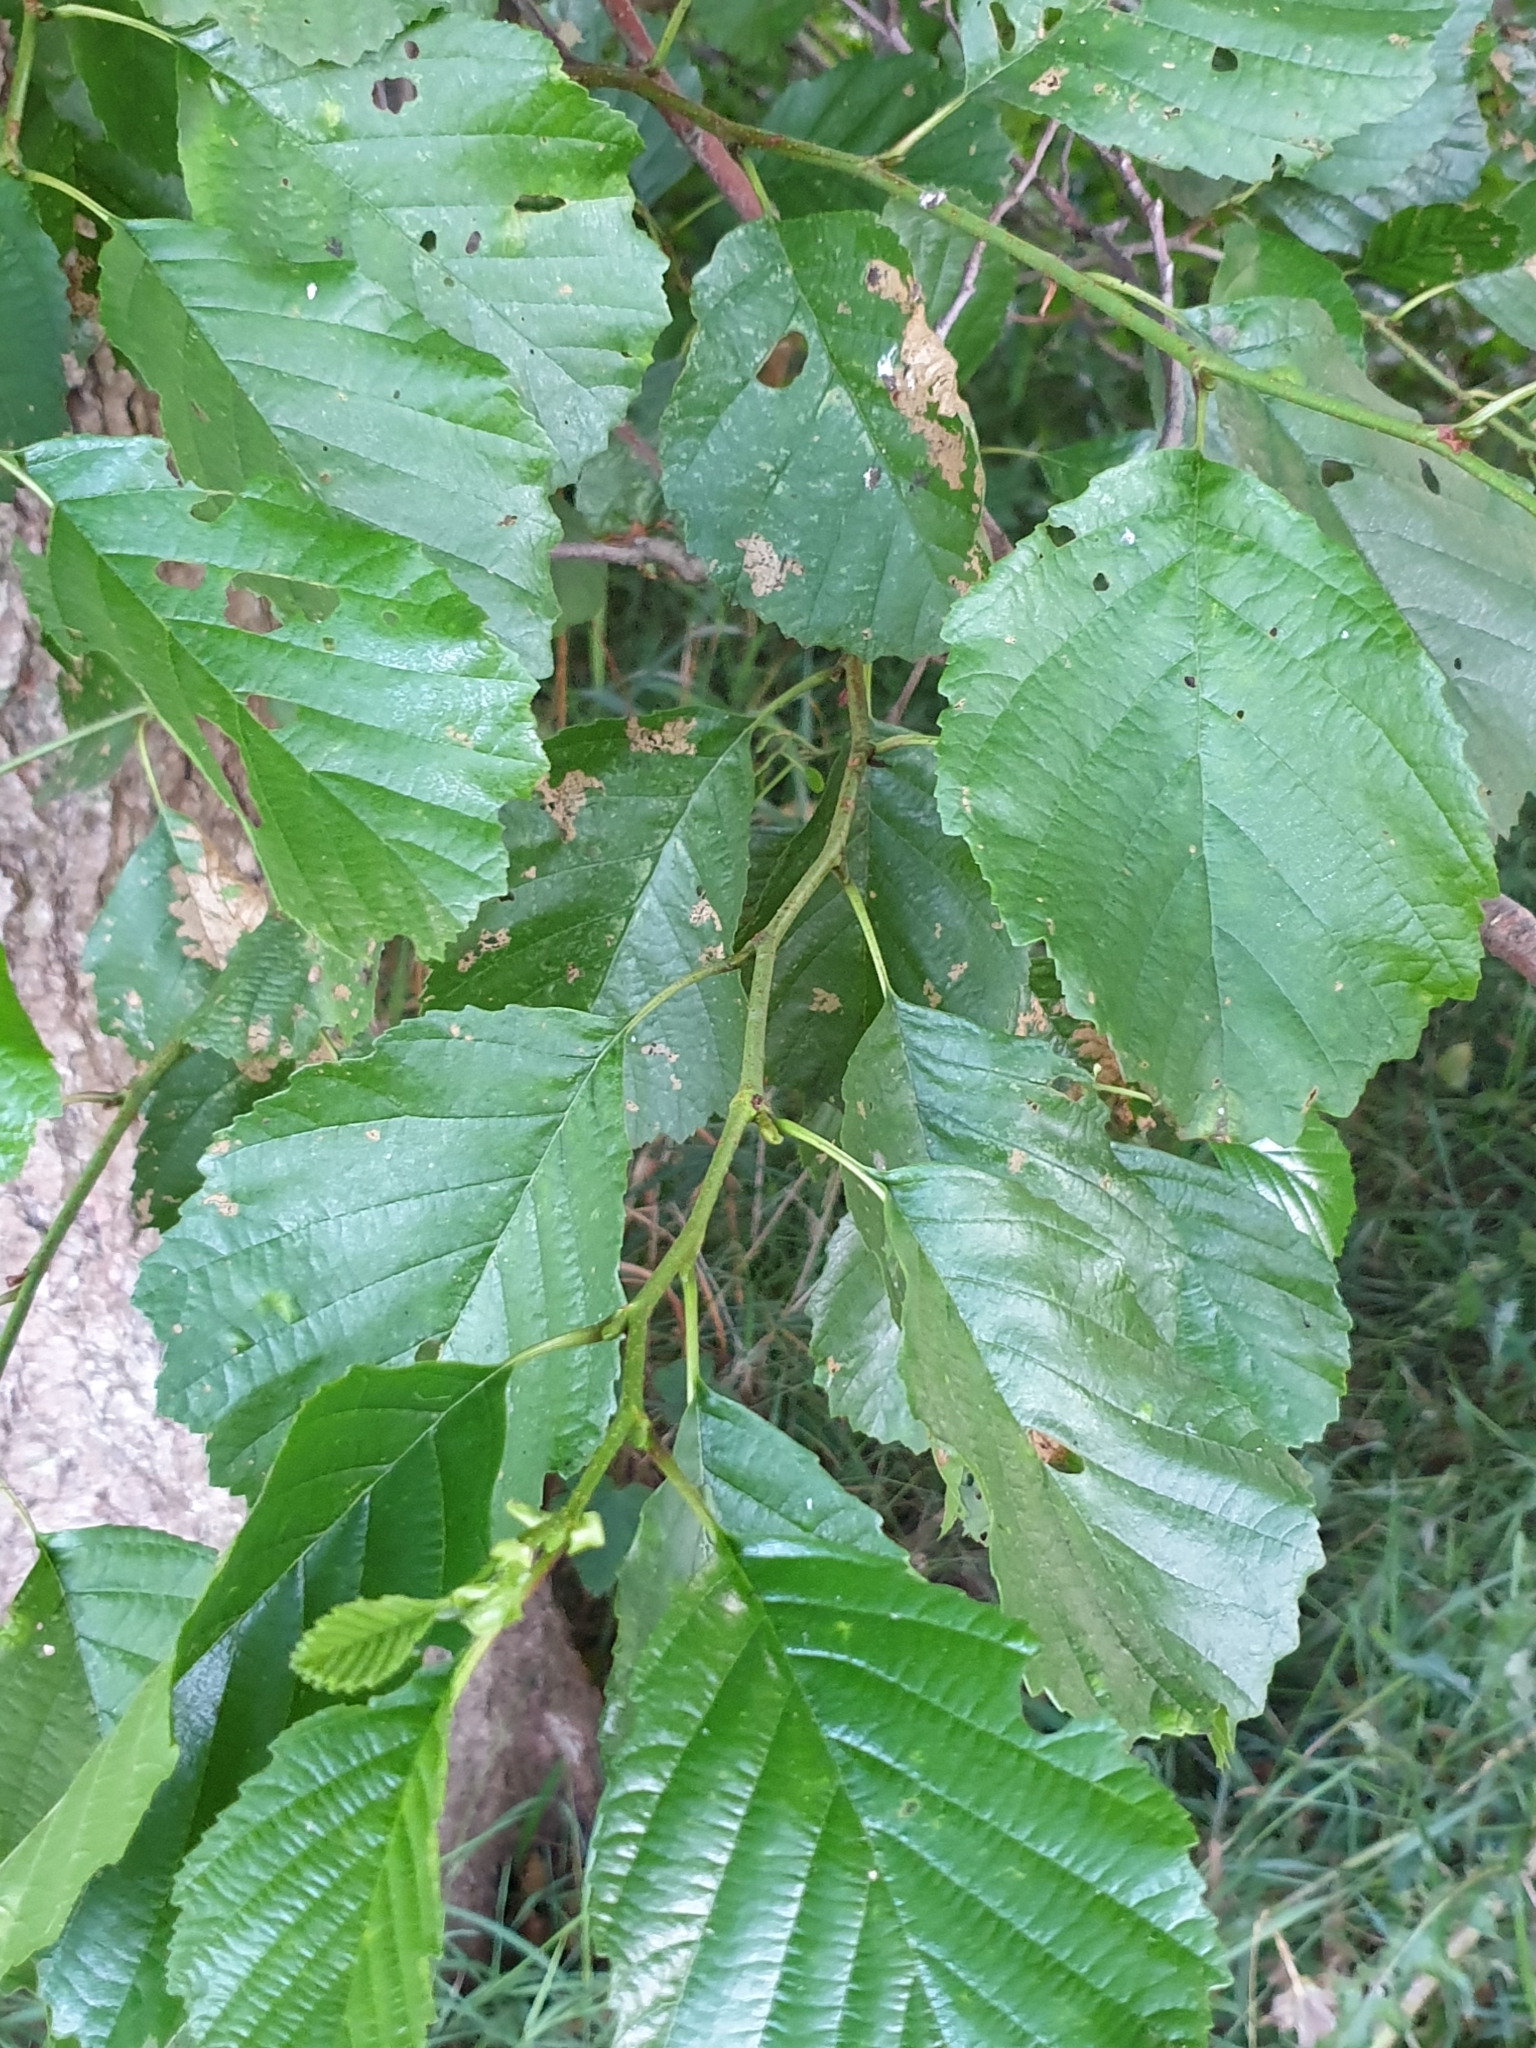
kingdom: Plantae
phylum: Tracheophyta
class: Magnoliopsida
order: Fagales
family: Betulaceae
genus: Alnus
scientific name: Alnus glutinosa
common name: Black alder
